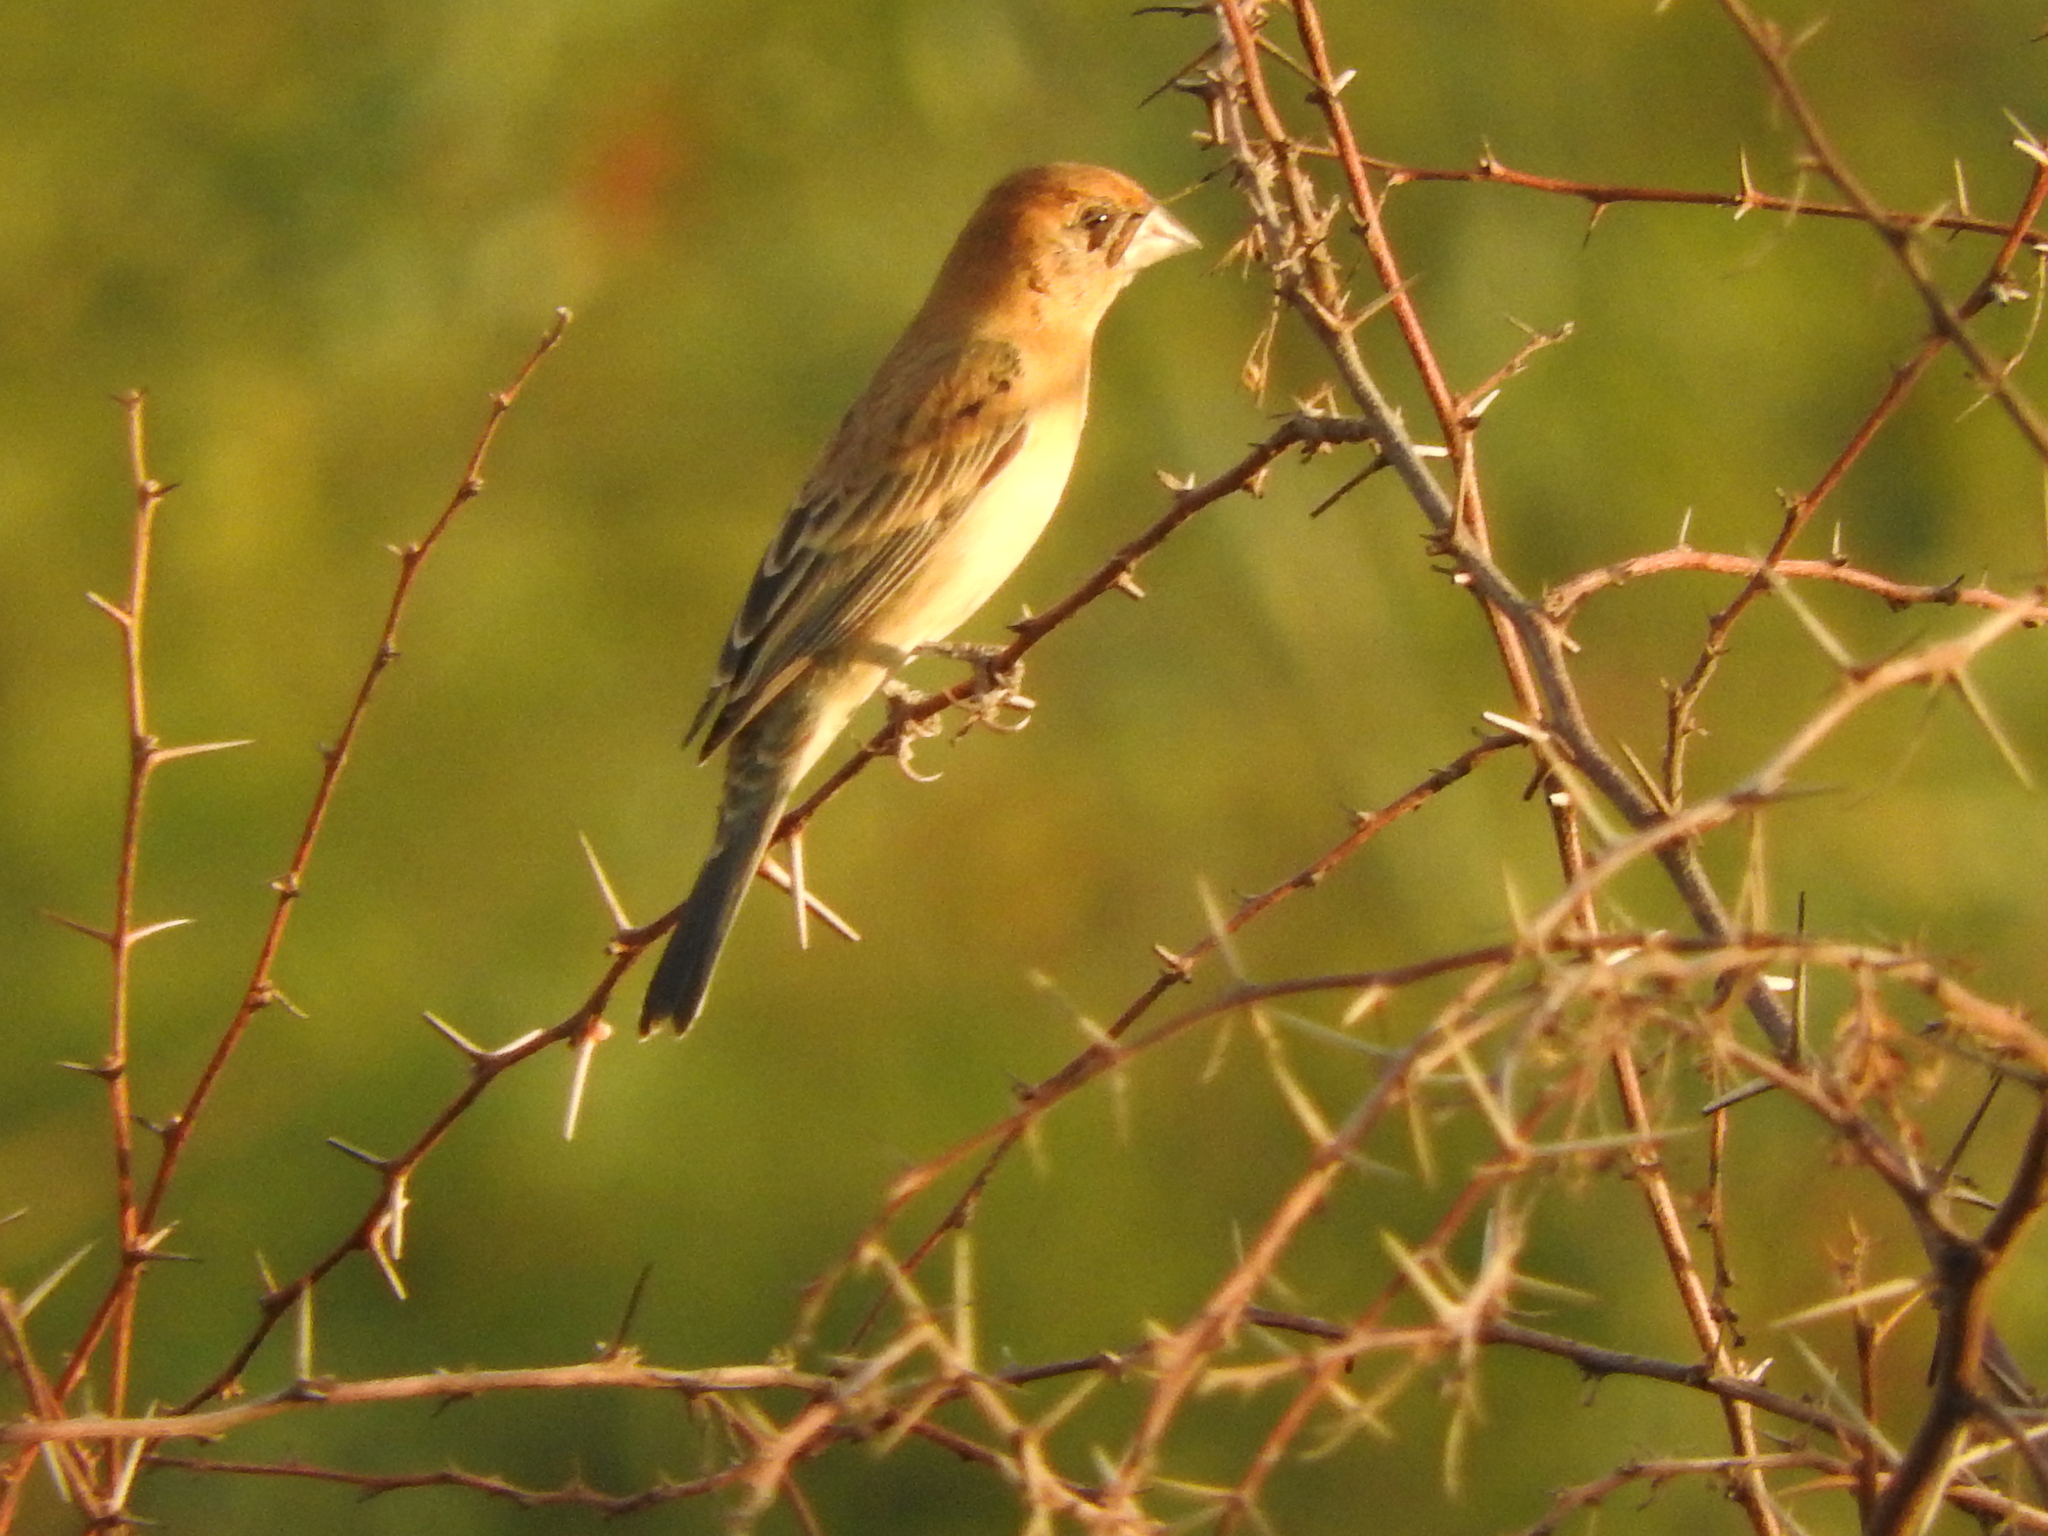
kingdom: Animalia
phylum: Chordata
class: Aves
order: Passeriformes
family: Cardinalidae
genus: Passerina
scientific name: Passerina caerulea
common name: Blue grosbeak
